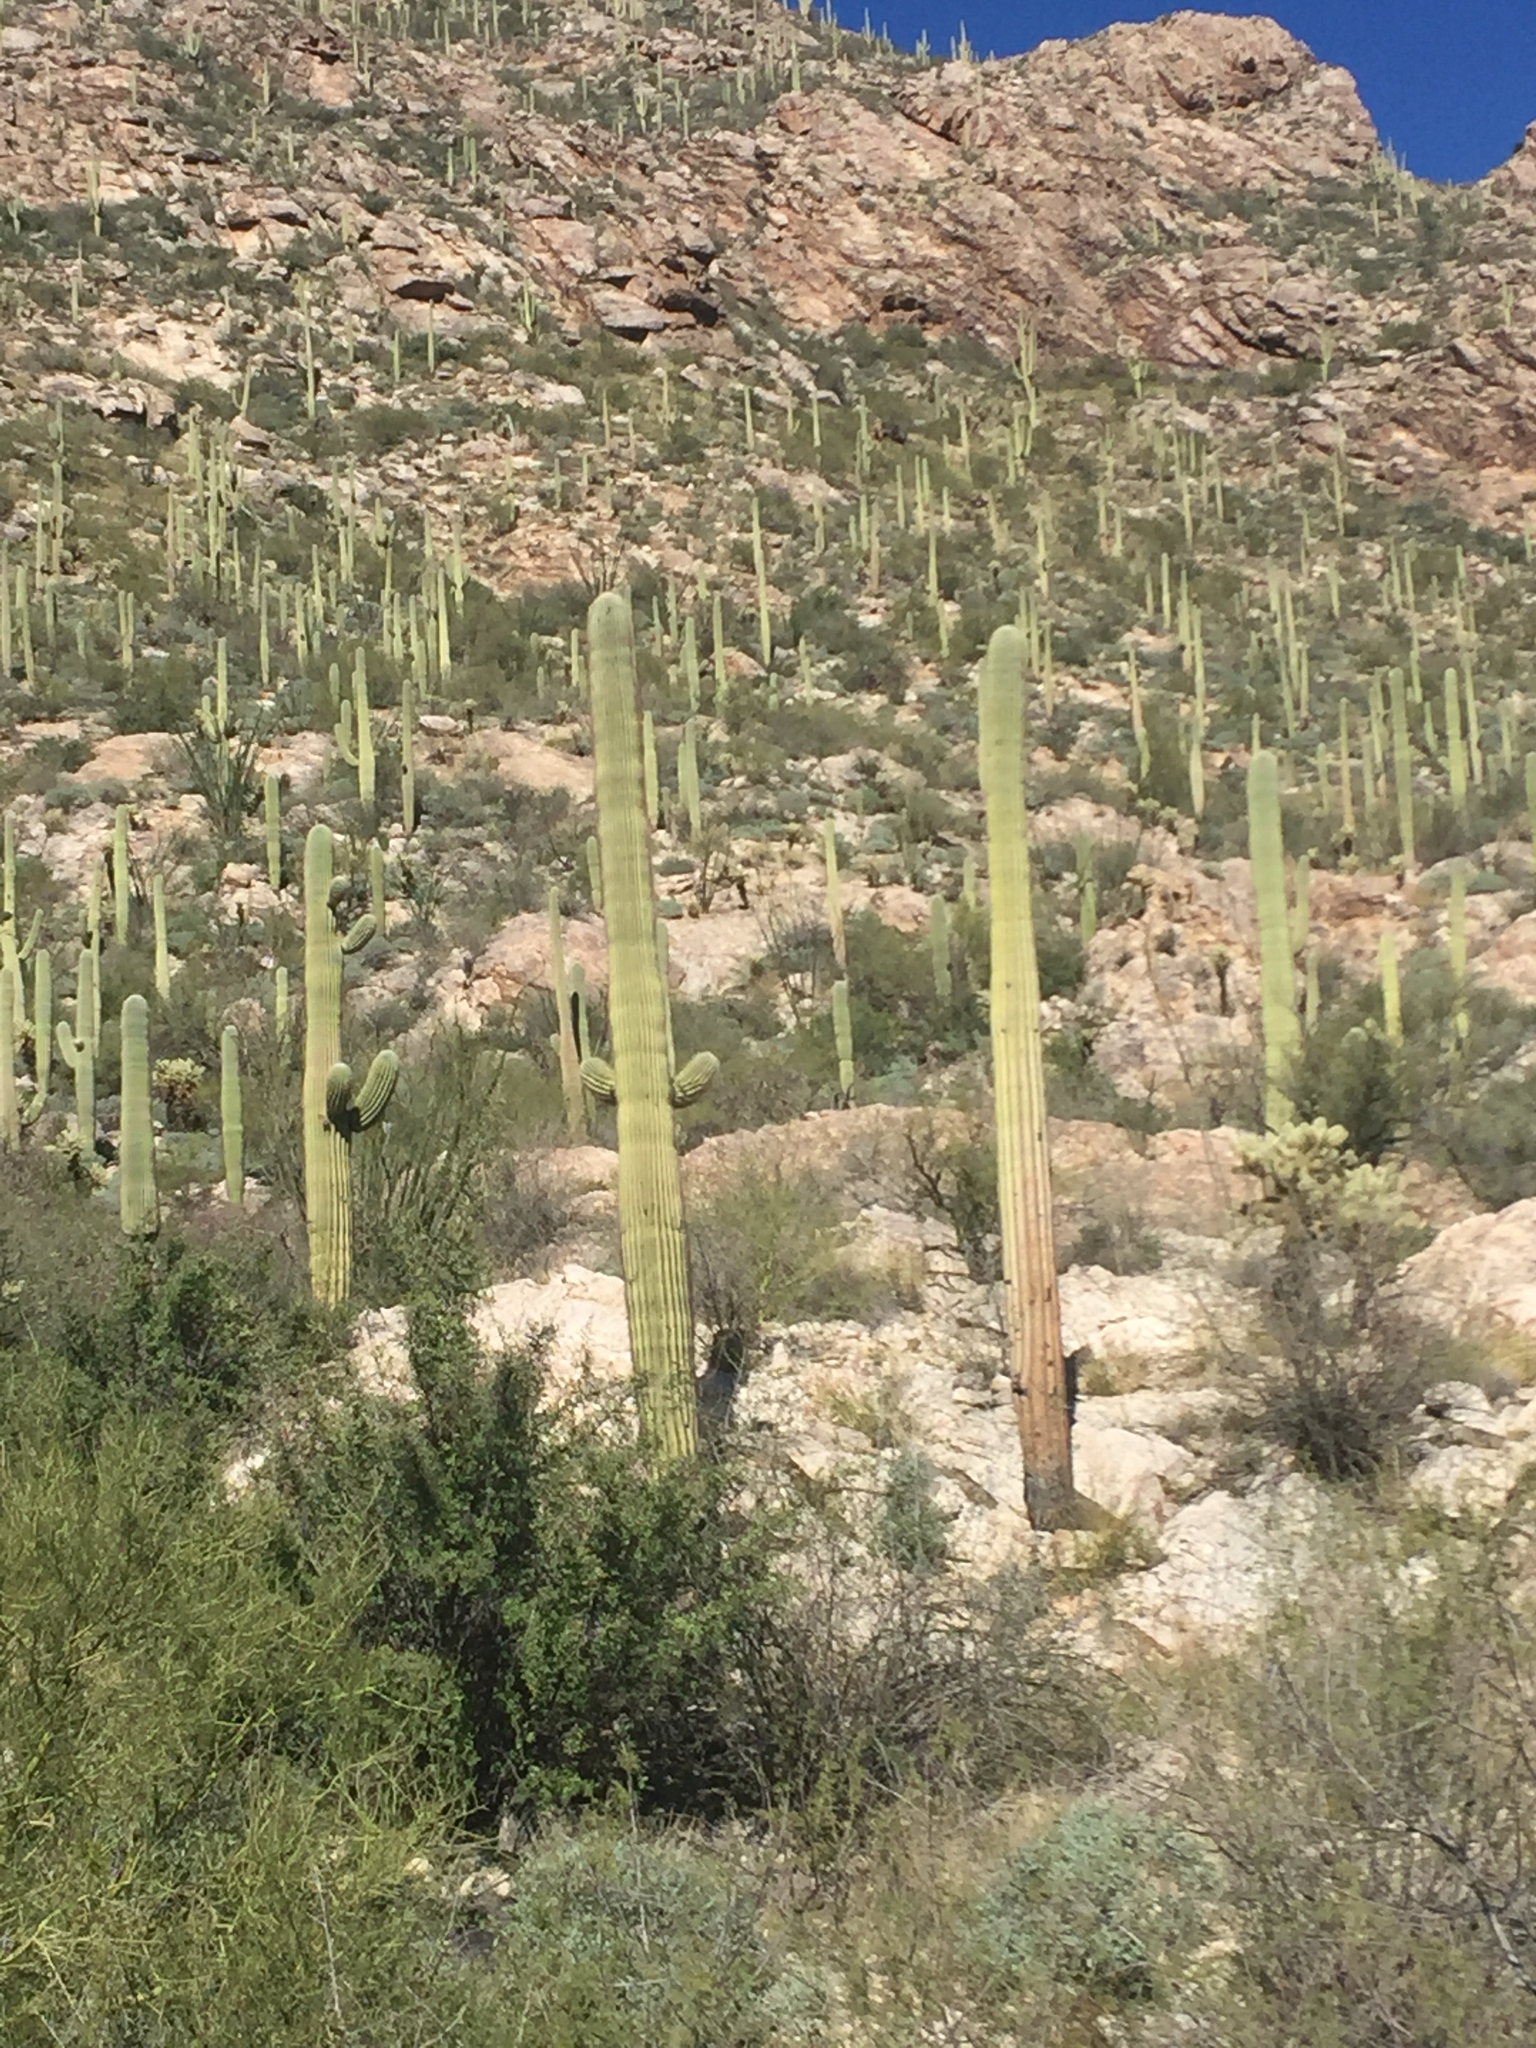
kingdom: Plantae
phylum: Tracheophyta
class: Magnoliopsida
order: Caryophyllales
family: Cactaceae
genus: Carnegiea
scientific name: Carnegiea gigantea
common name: Saguaro
